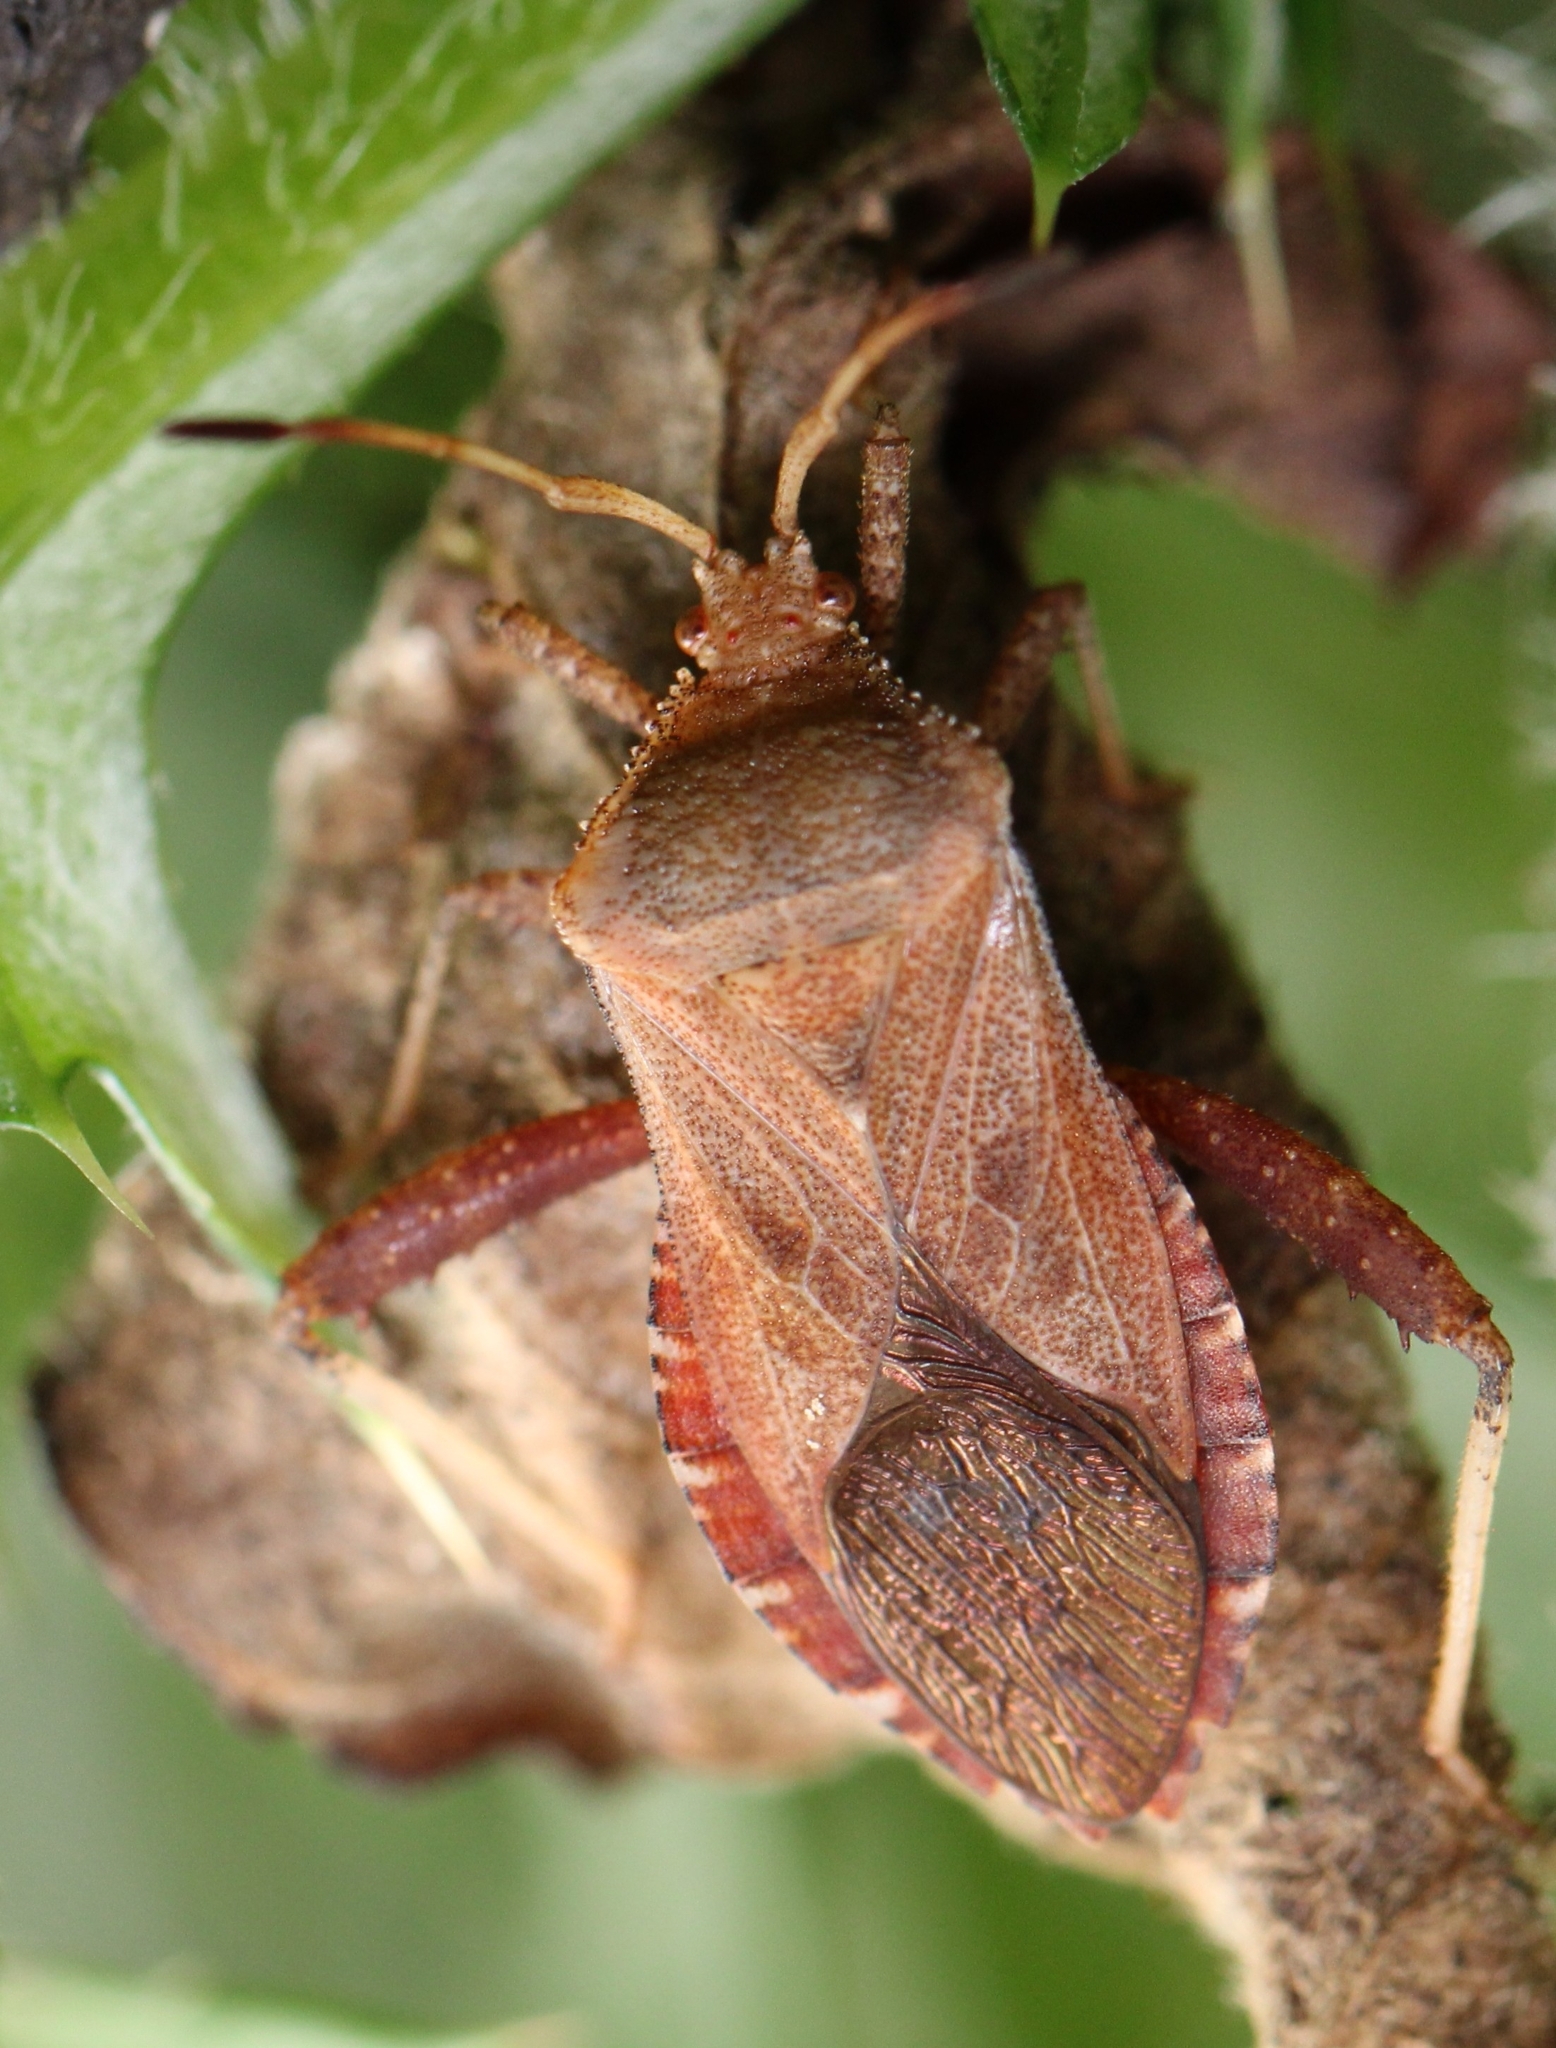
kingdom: Animalia
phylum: Arthropoda
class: Insecta
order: Hemiptera
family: Coreidae
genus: Euthochtha
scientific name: Euthochtha galeator
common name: Helmeted squash bug
